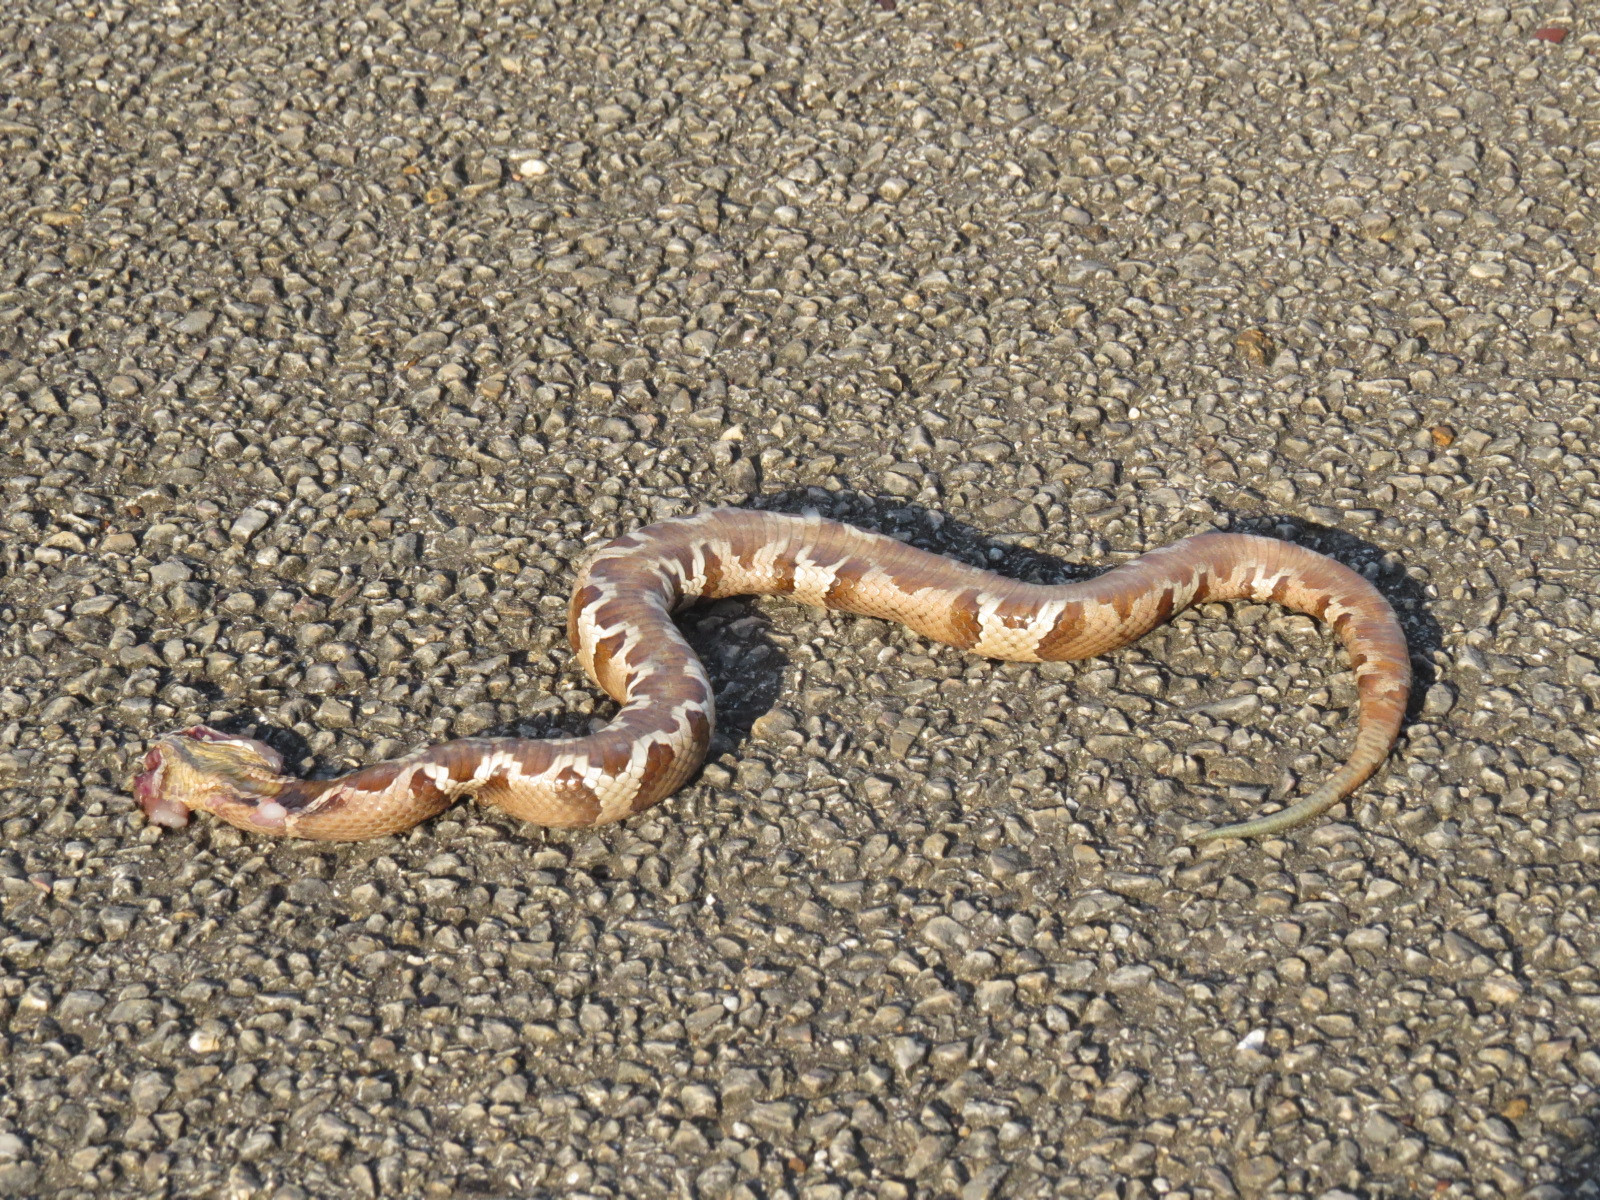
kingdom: Animalia
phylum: Chordata
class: Squamata
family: Viperidae
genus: Agkistrodon
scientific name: Agkistrodon laticinctus
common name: Broad-banded copperhead
